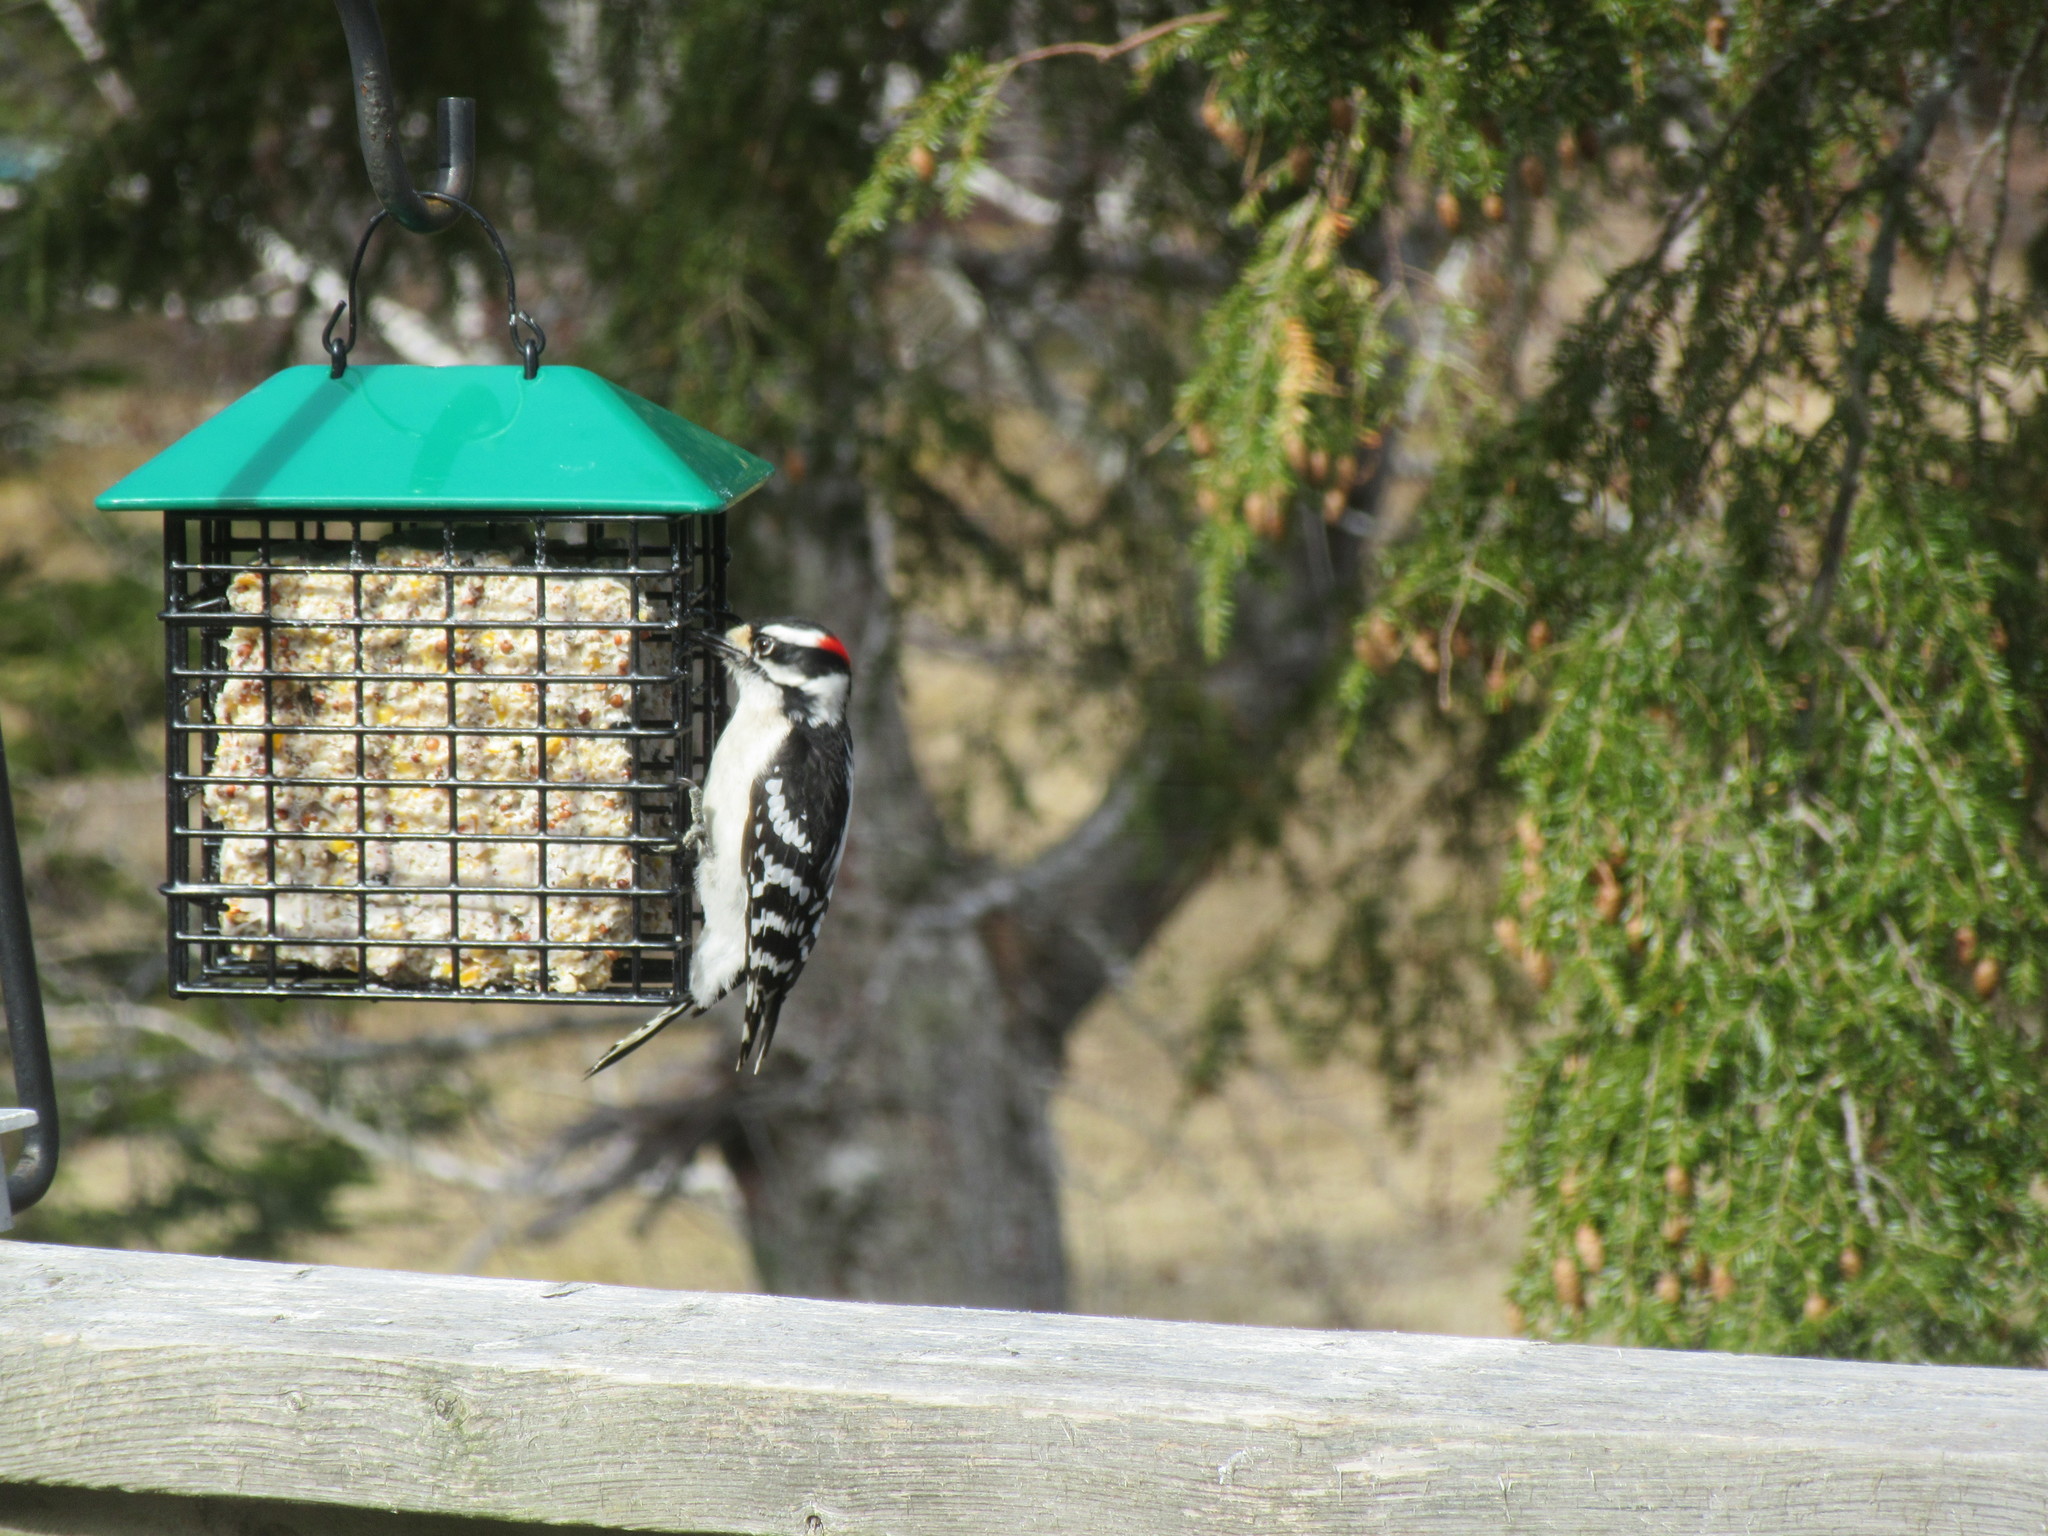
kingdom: Animalia
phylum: Chordata
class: Aves
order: Piciformes
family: Picidae
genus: Dryobates
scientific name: Dryobates pubescens
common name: Downy woodpecker
